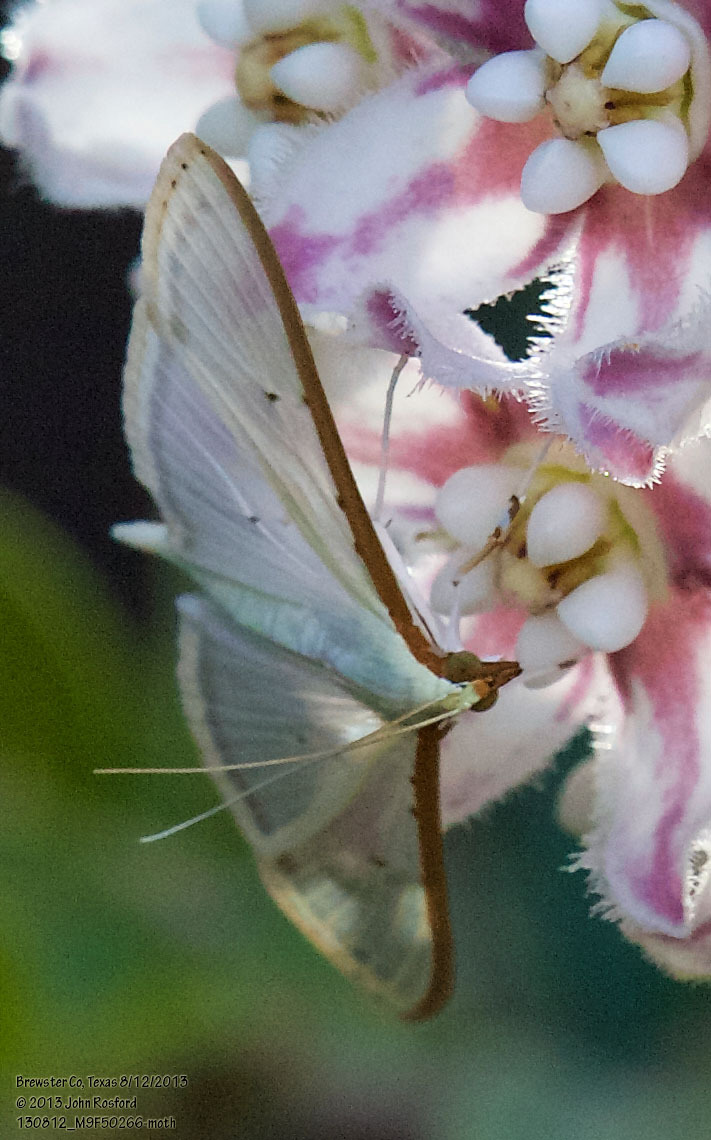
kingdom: Animalia
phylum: Arthropoda
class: Insecta
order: Lepidoptera
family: Crambidae
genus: Palpita
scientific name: Palpita quadristigmalis
